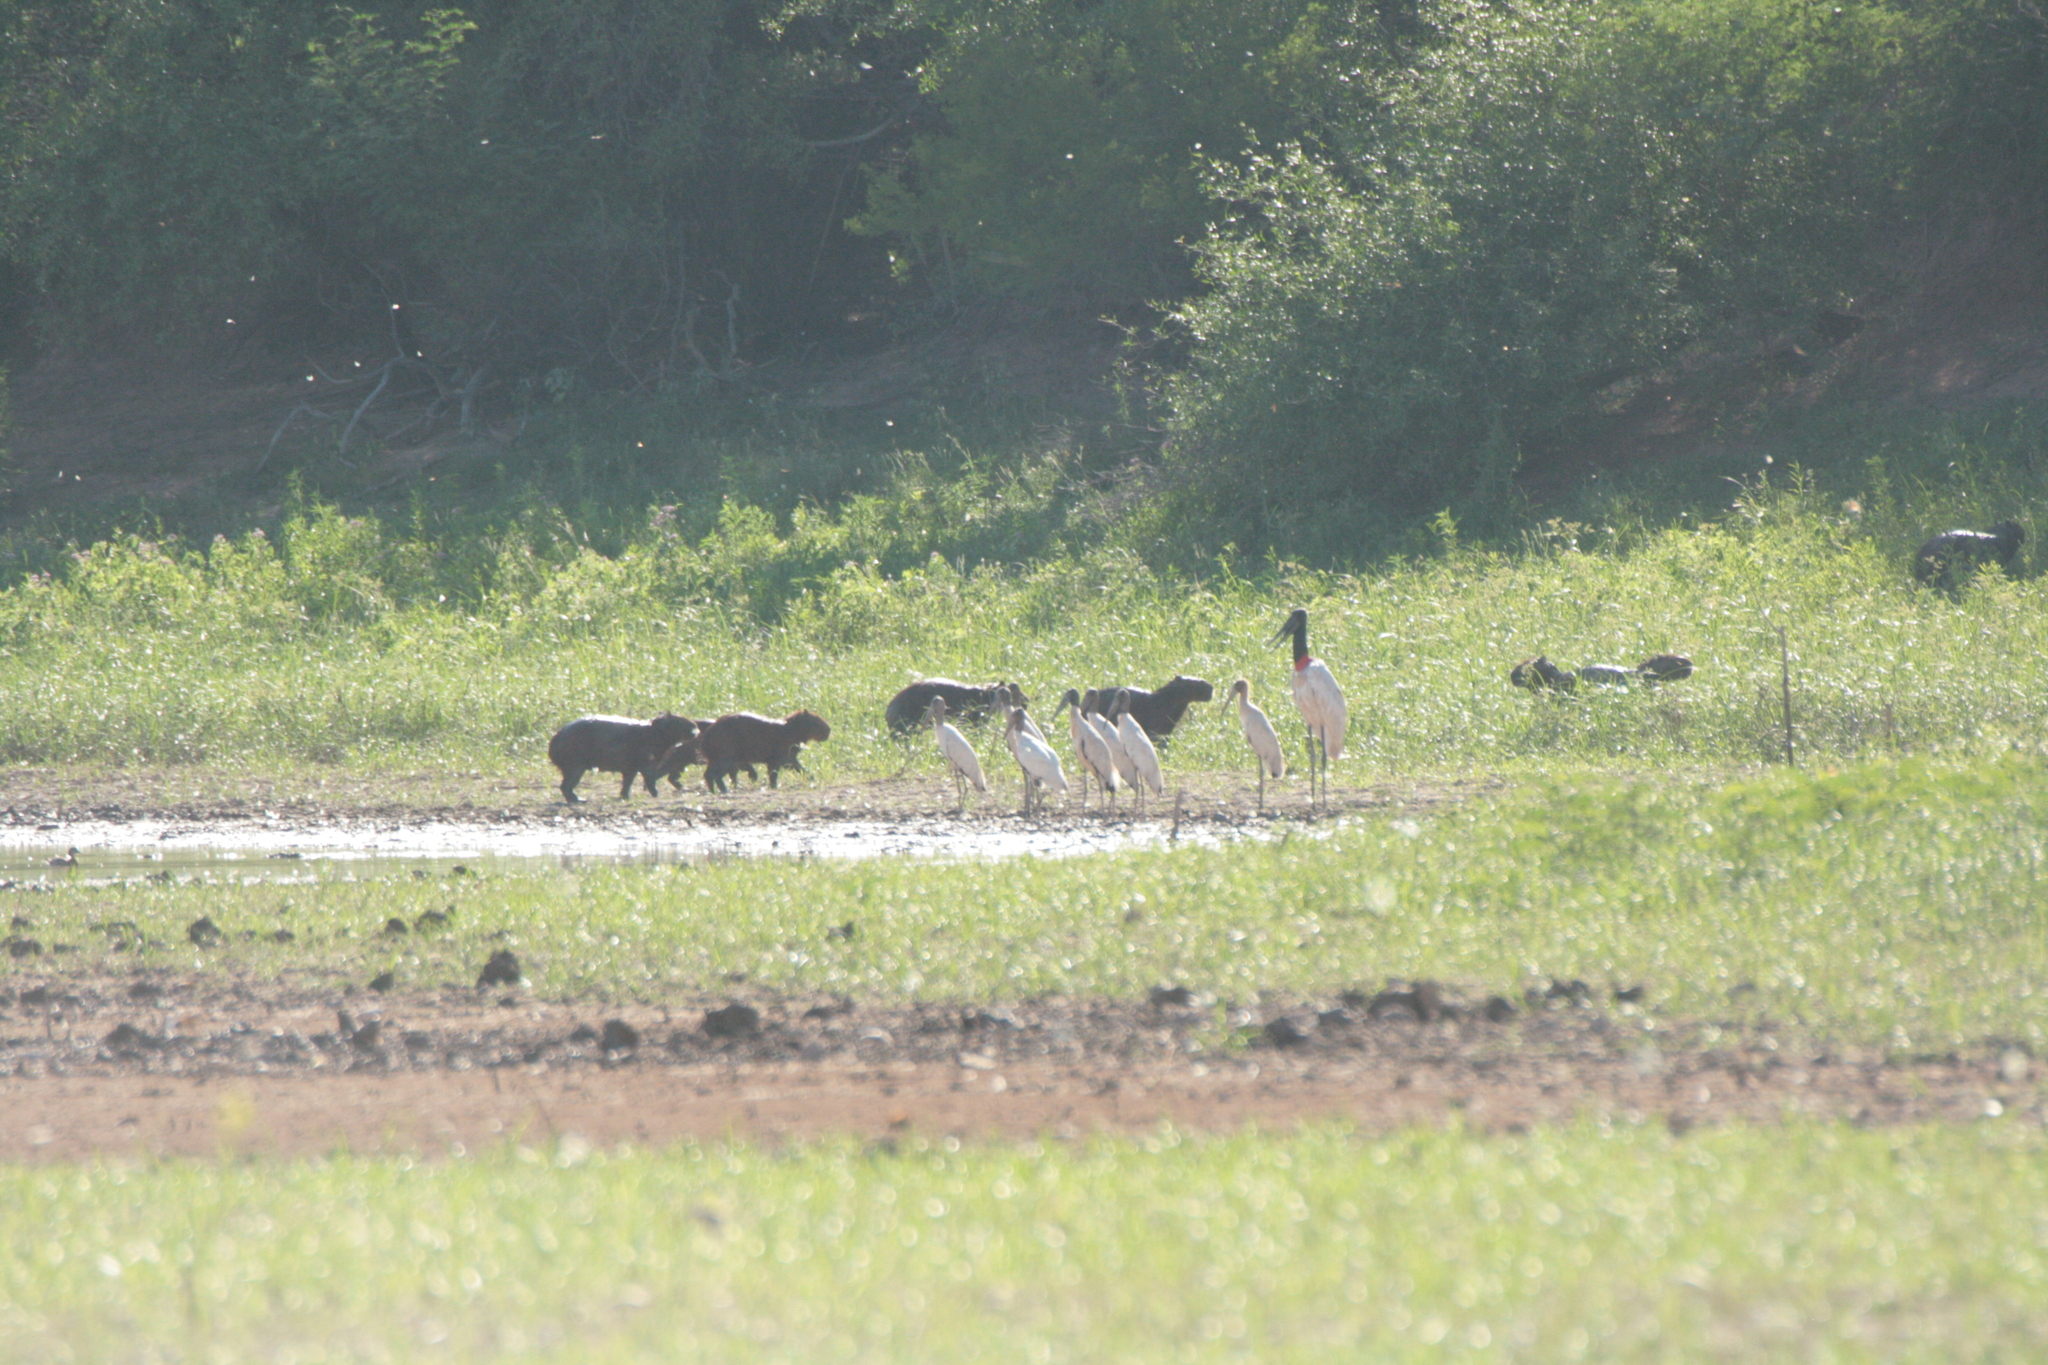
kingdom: Animalia
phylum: Chordata
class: Mammalia
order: Rodentia
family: Caviidae
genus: Hydrochoerus
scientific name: Hydrochoerus hydrochaeris
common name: Capybara
